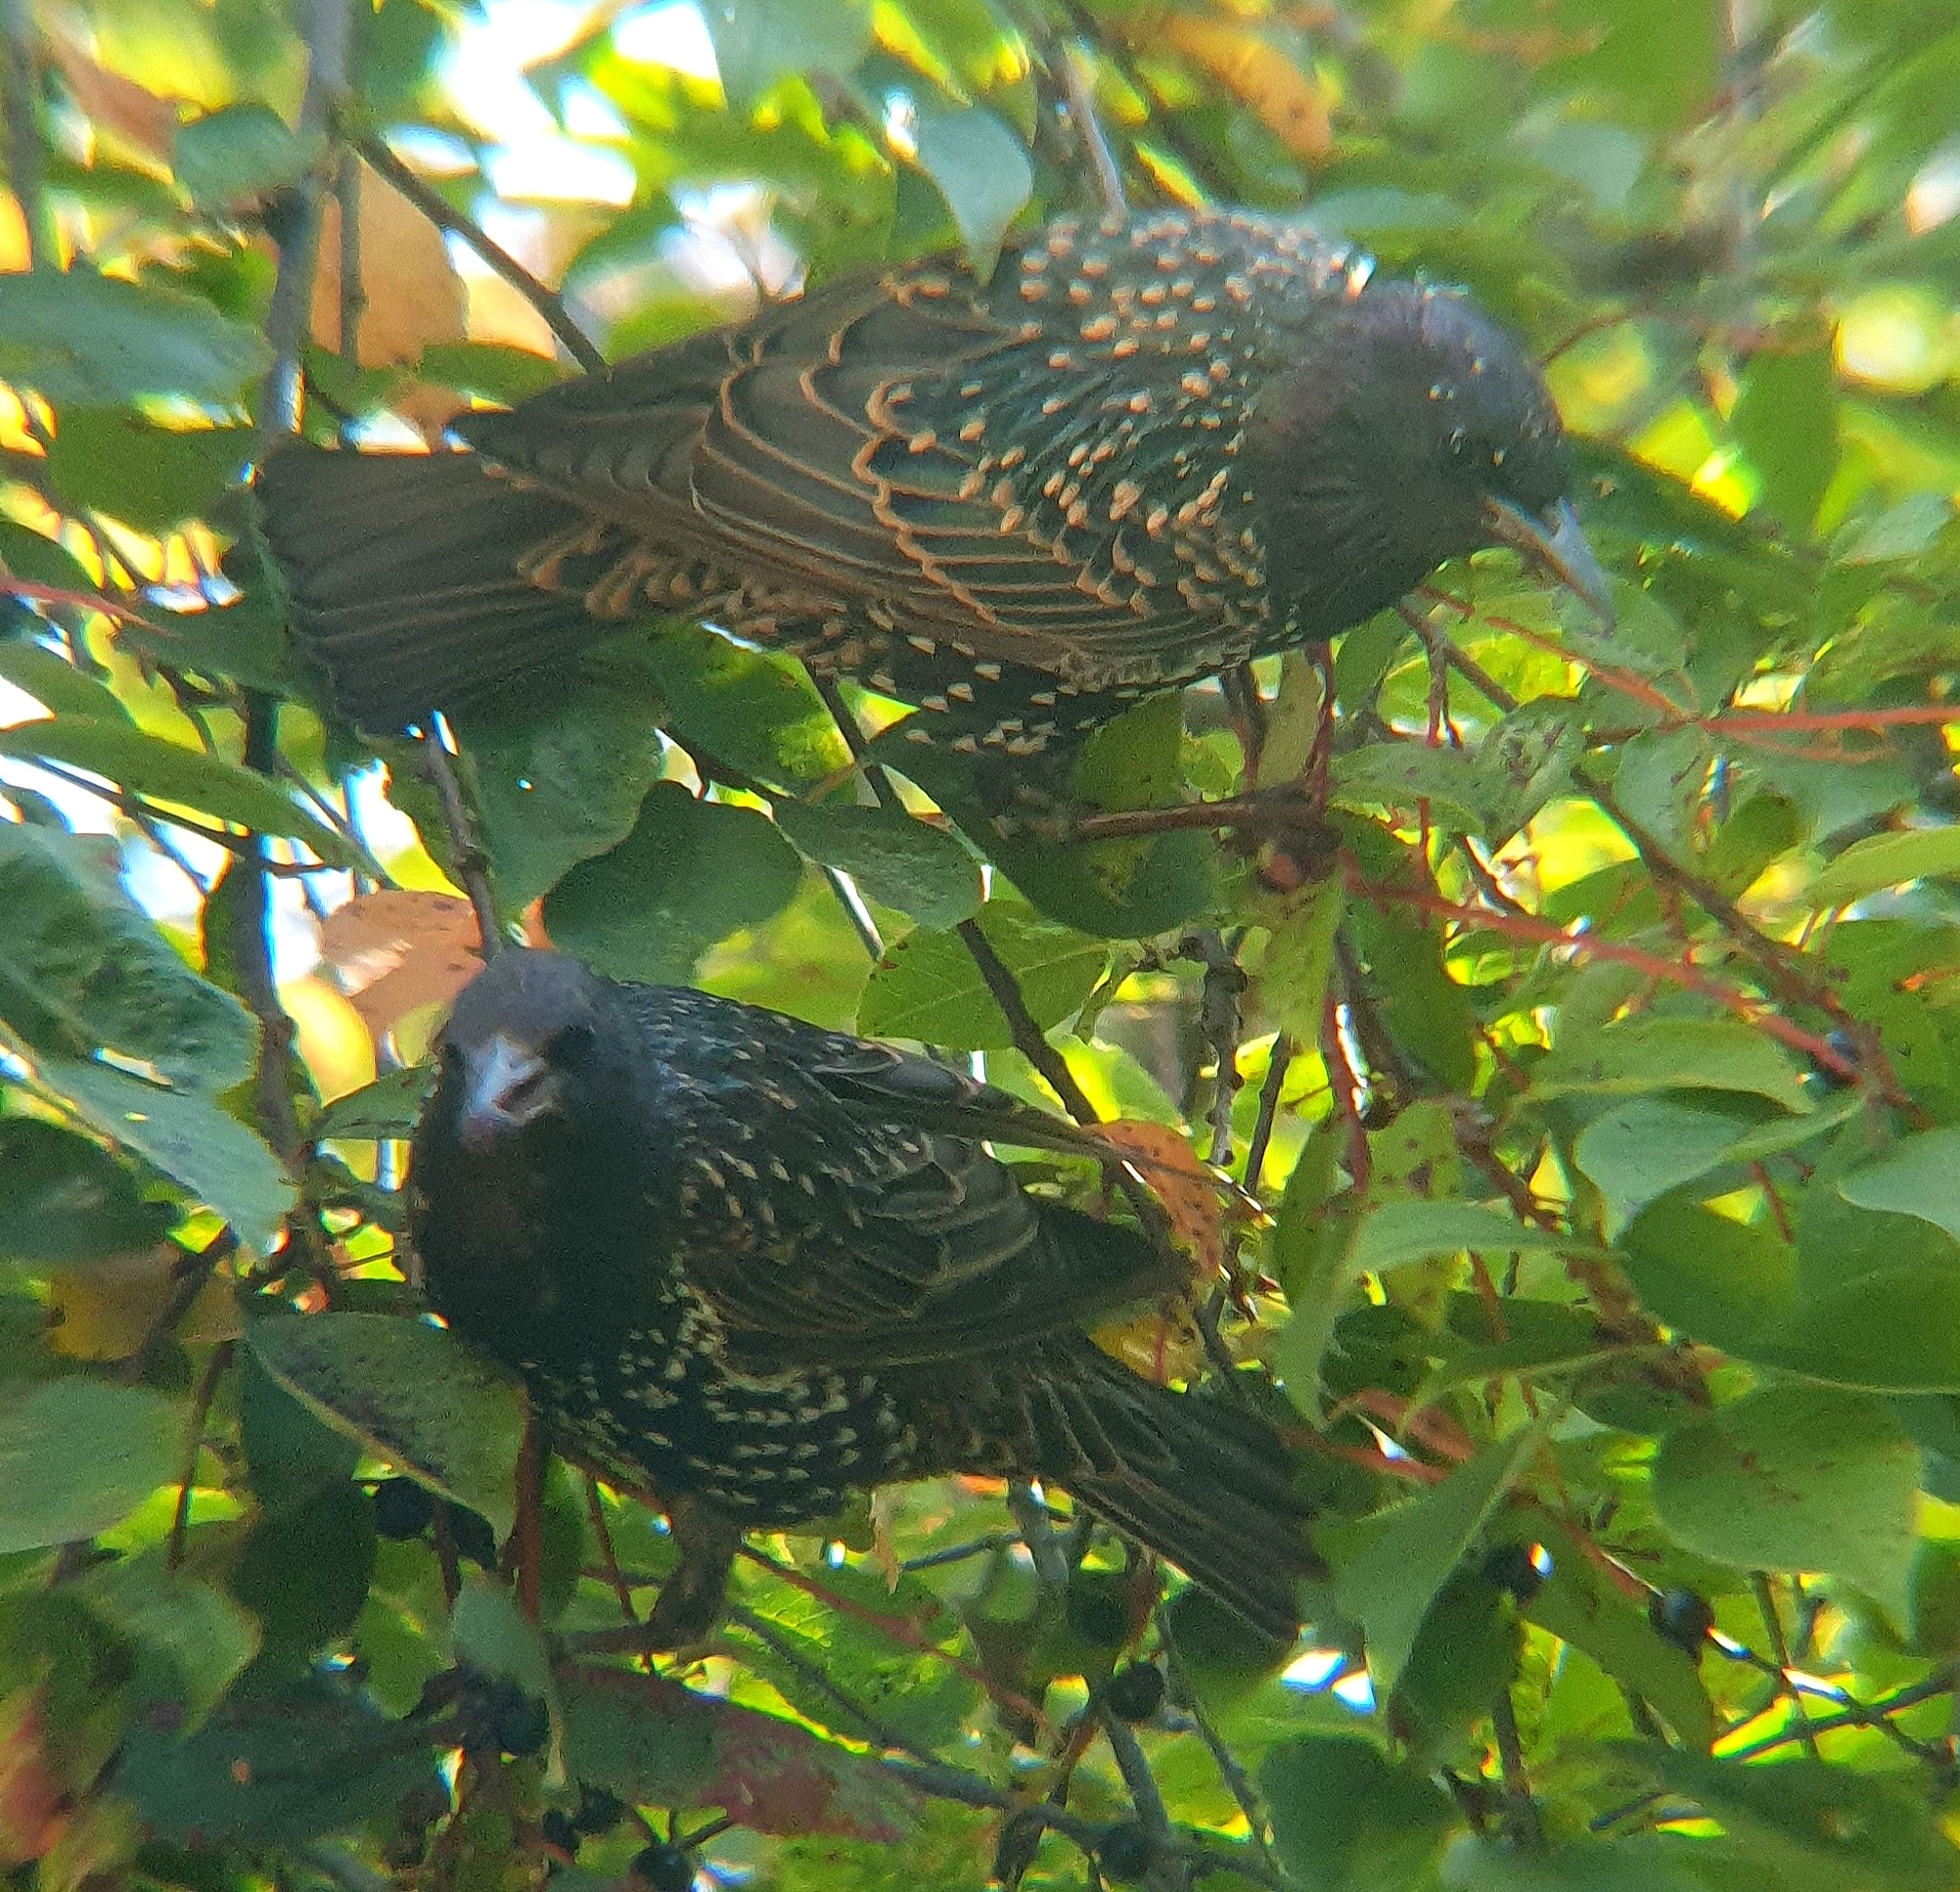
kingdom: Animalia
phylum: Chordata
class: Aves
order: Passeriformes
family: Sturnidae
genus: Sturnus
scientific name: Sturnus vulgaris
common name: Common starling
